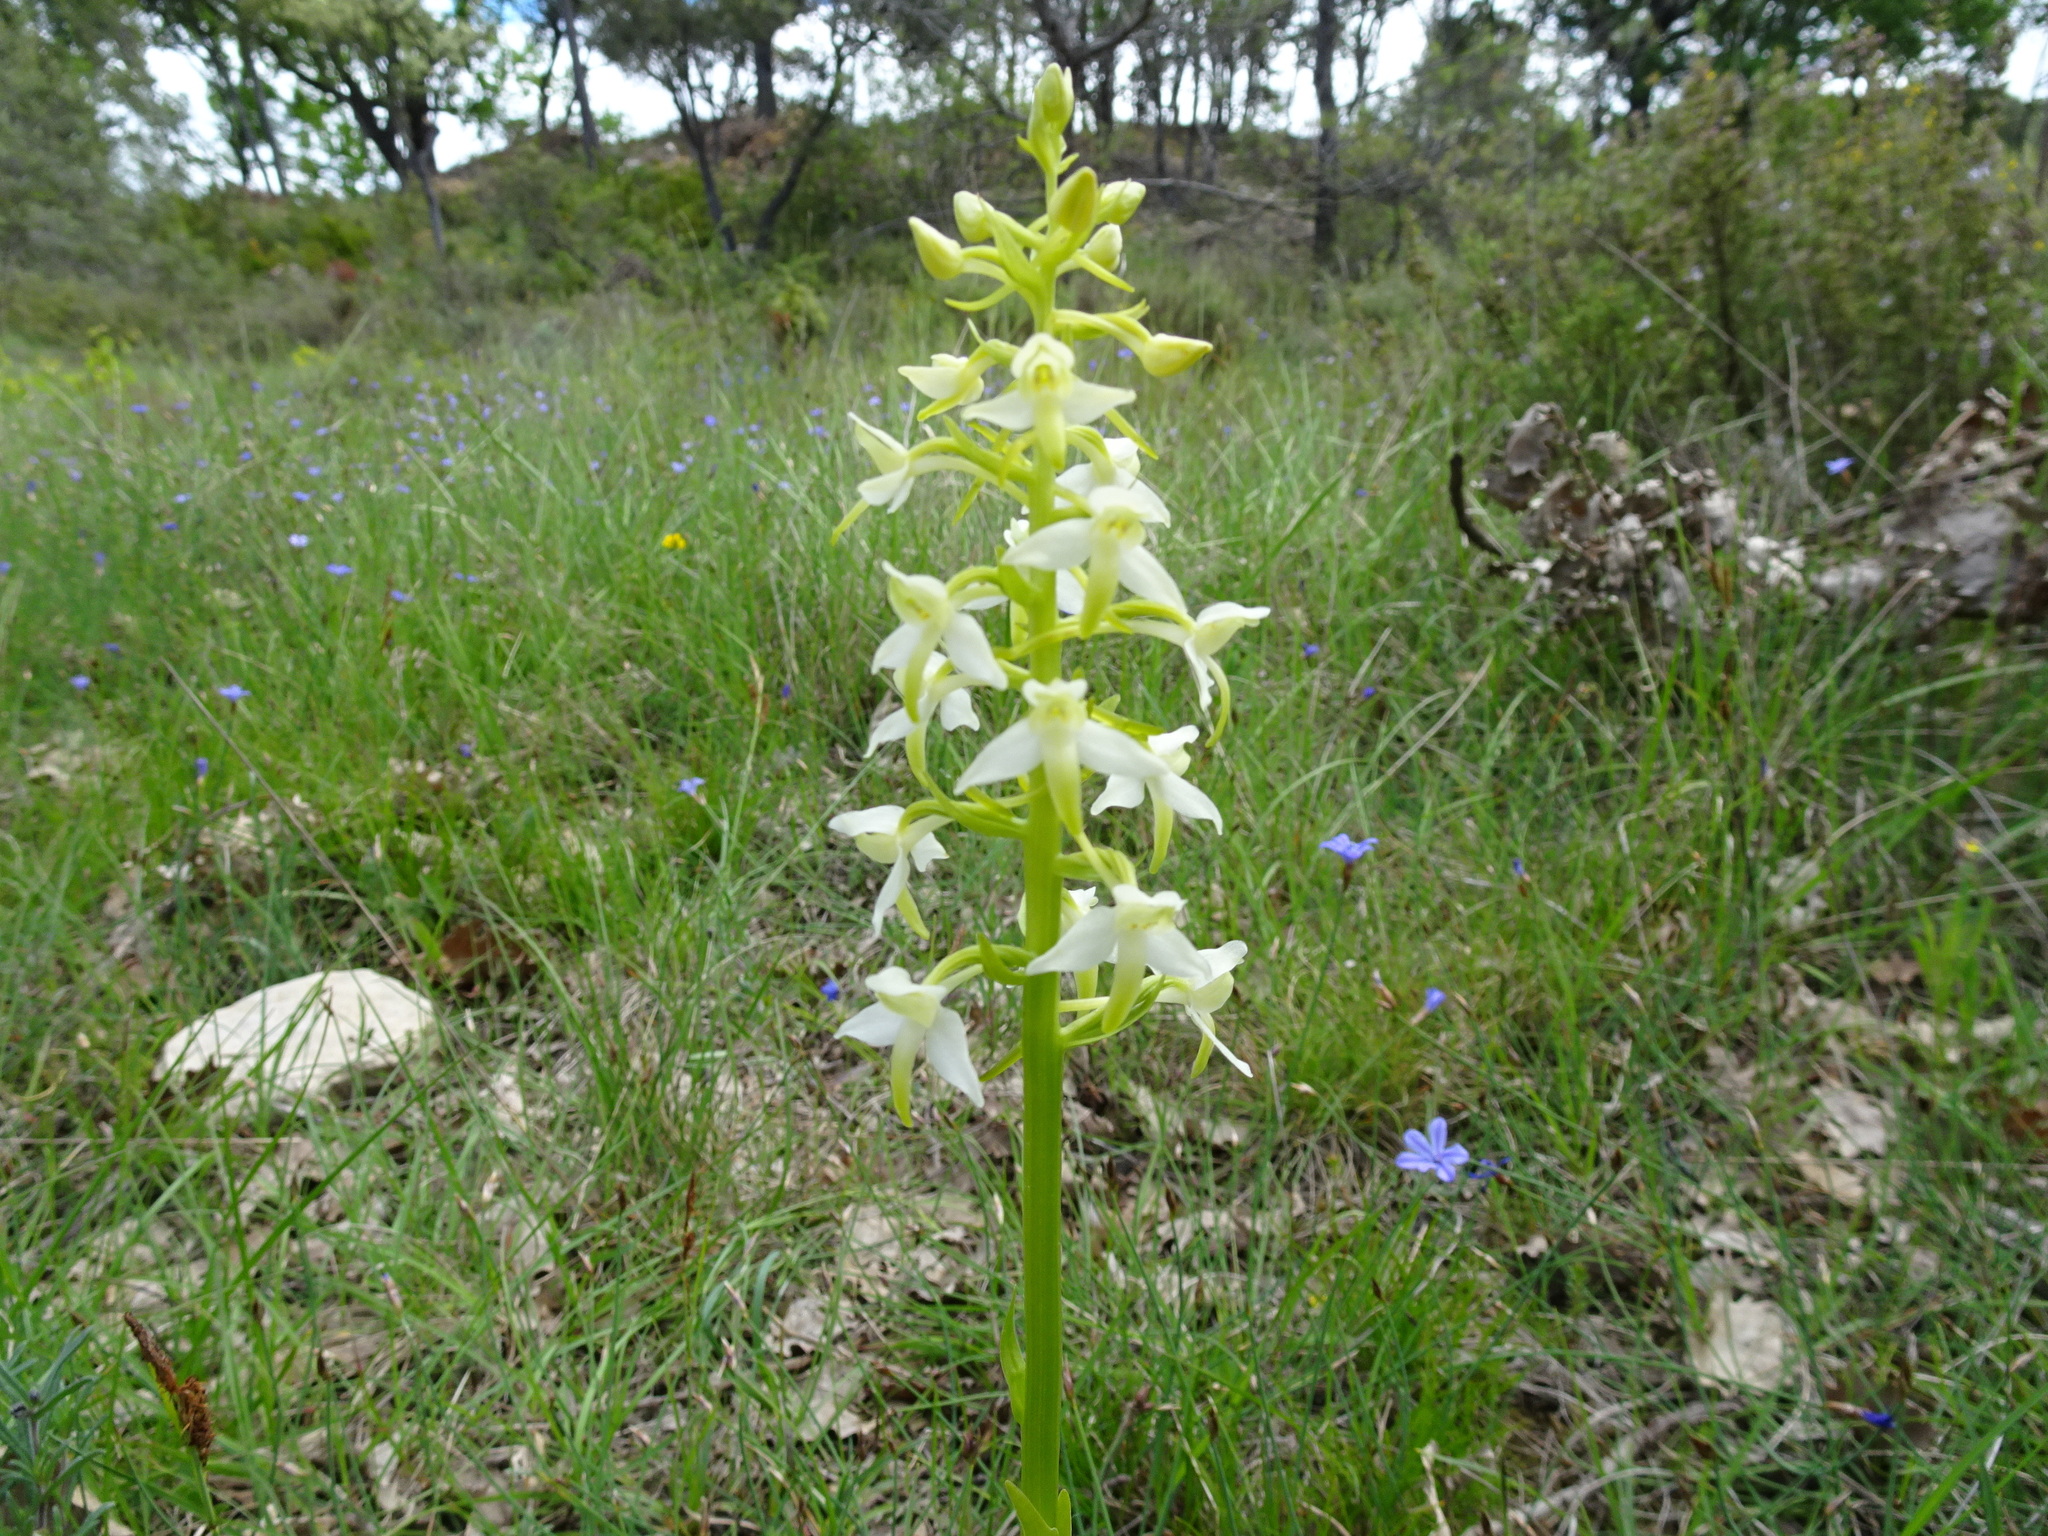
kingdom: Plantae
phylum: Tracheophyta
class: Liliopsida
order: Asparagales
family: Orchidaceae
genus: Platanthera
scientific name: Platanthera bifolia
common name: Lesser butterfly-orchid
